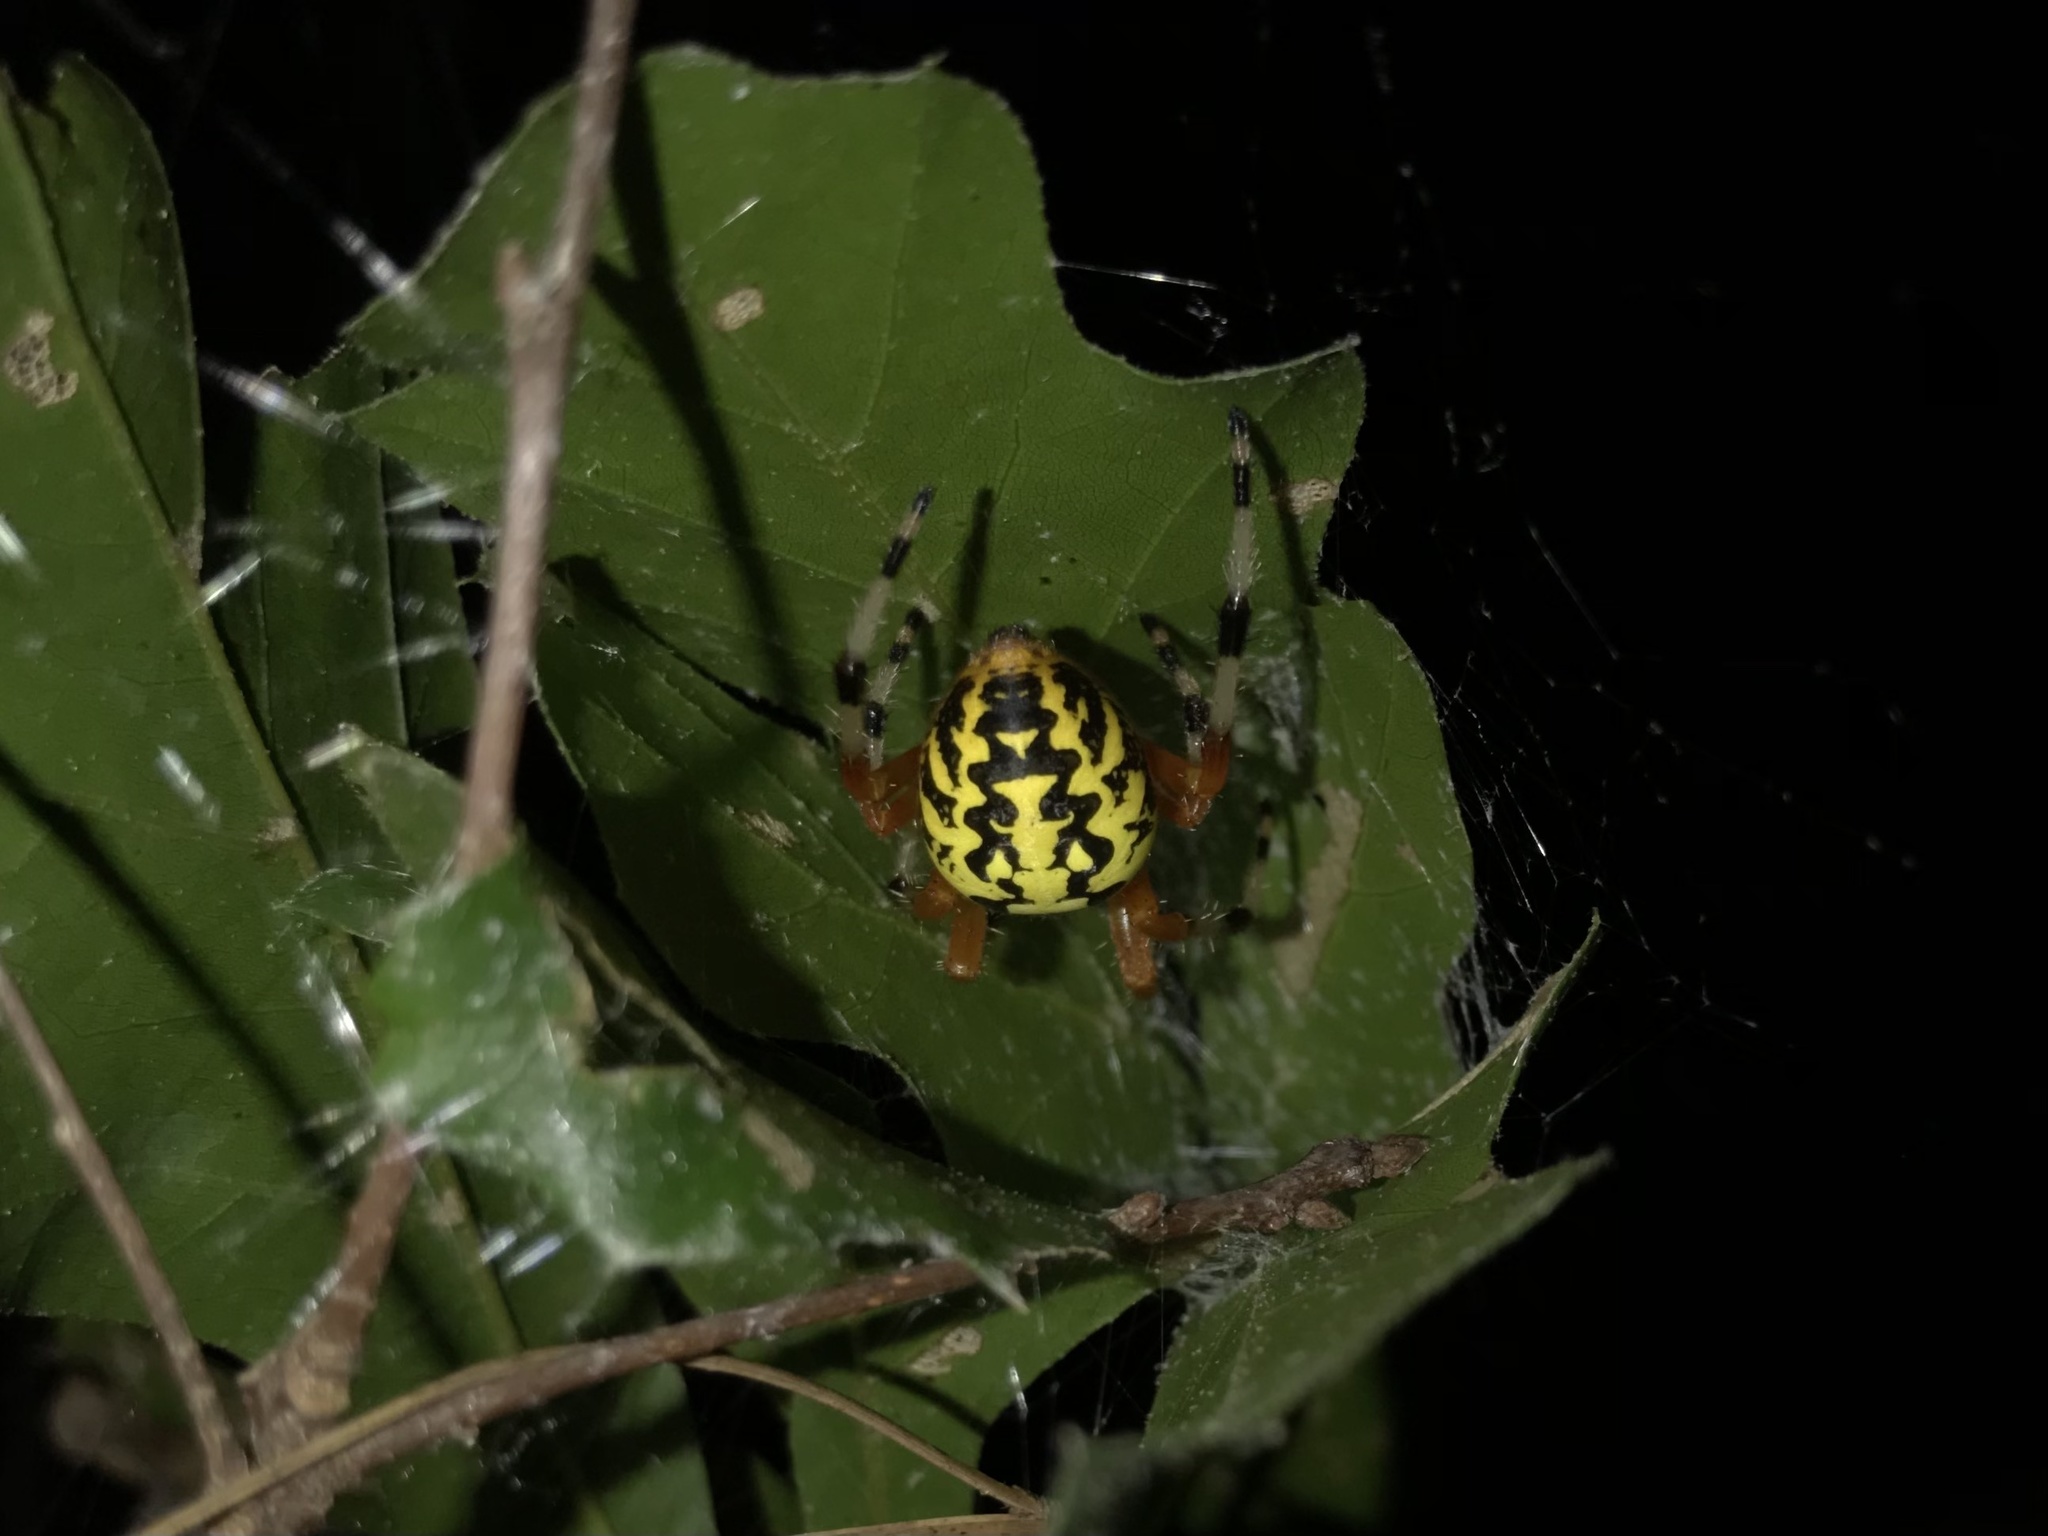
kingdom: Animalia
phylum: Arthropoda
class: Arachnida
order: Araneae
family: Araneidae
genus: Araneus
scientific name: Araneus marmoreus
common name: Marbled orbweaver
